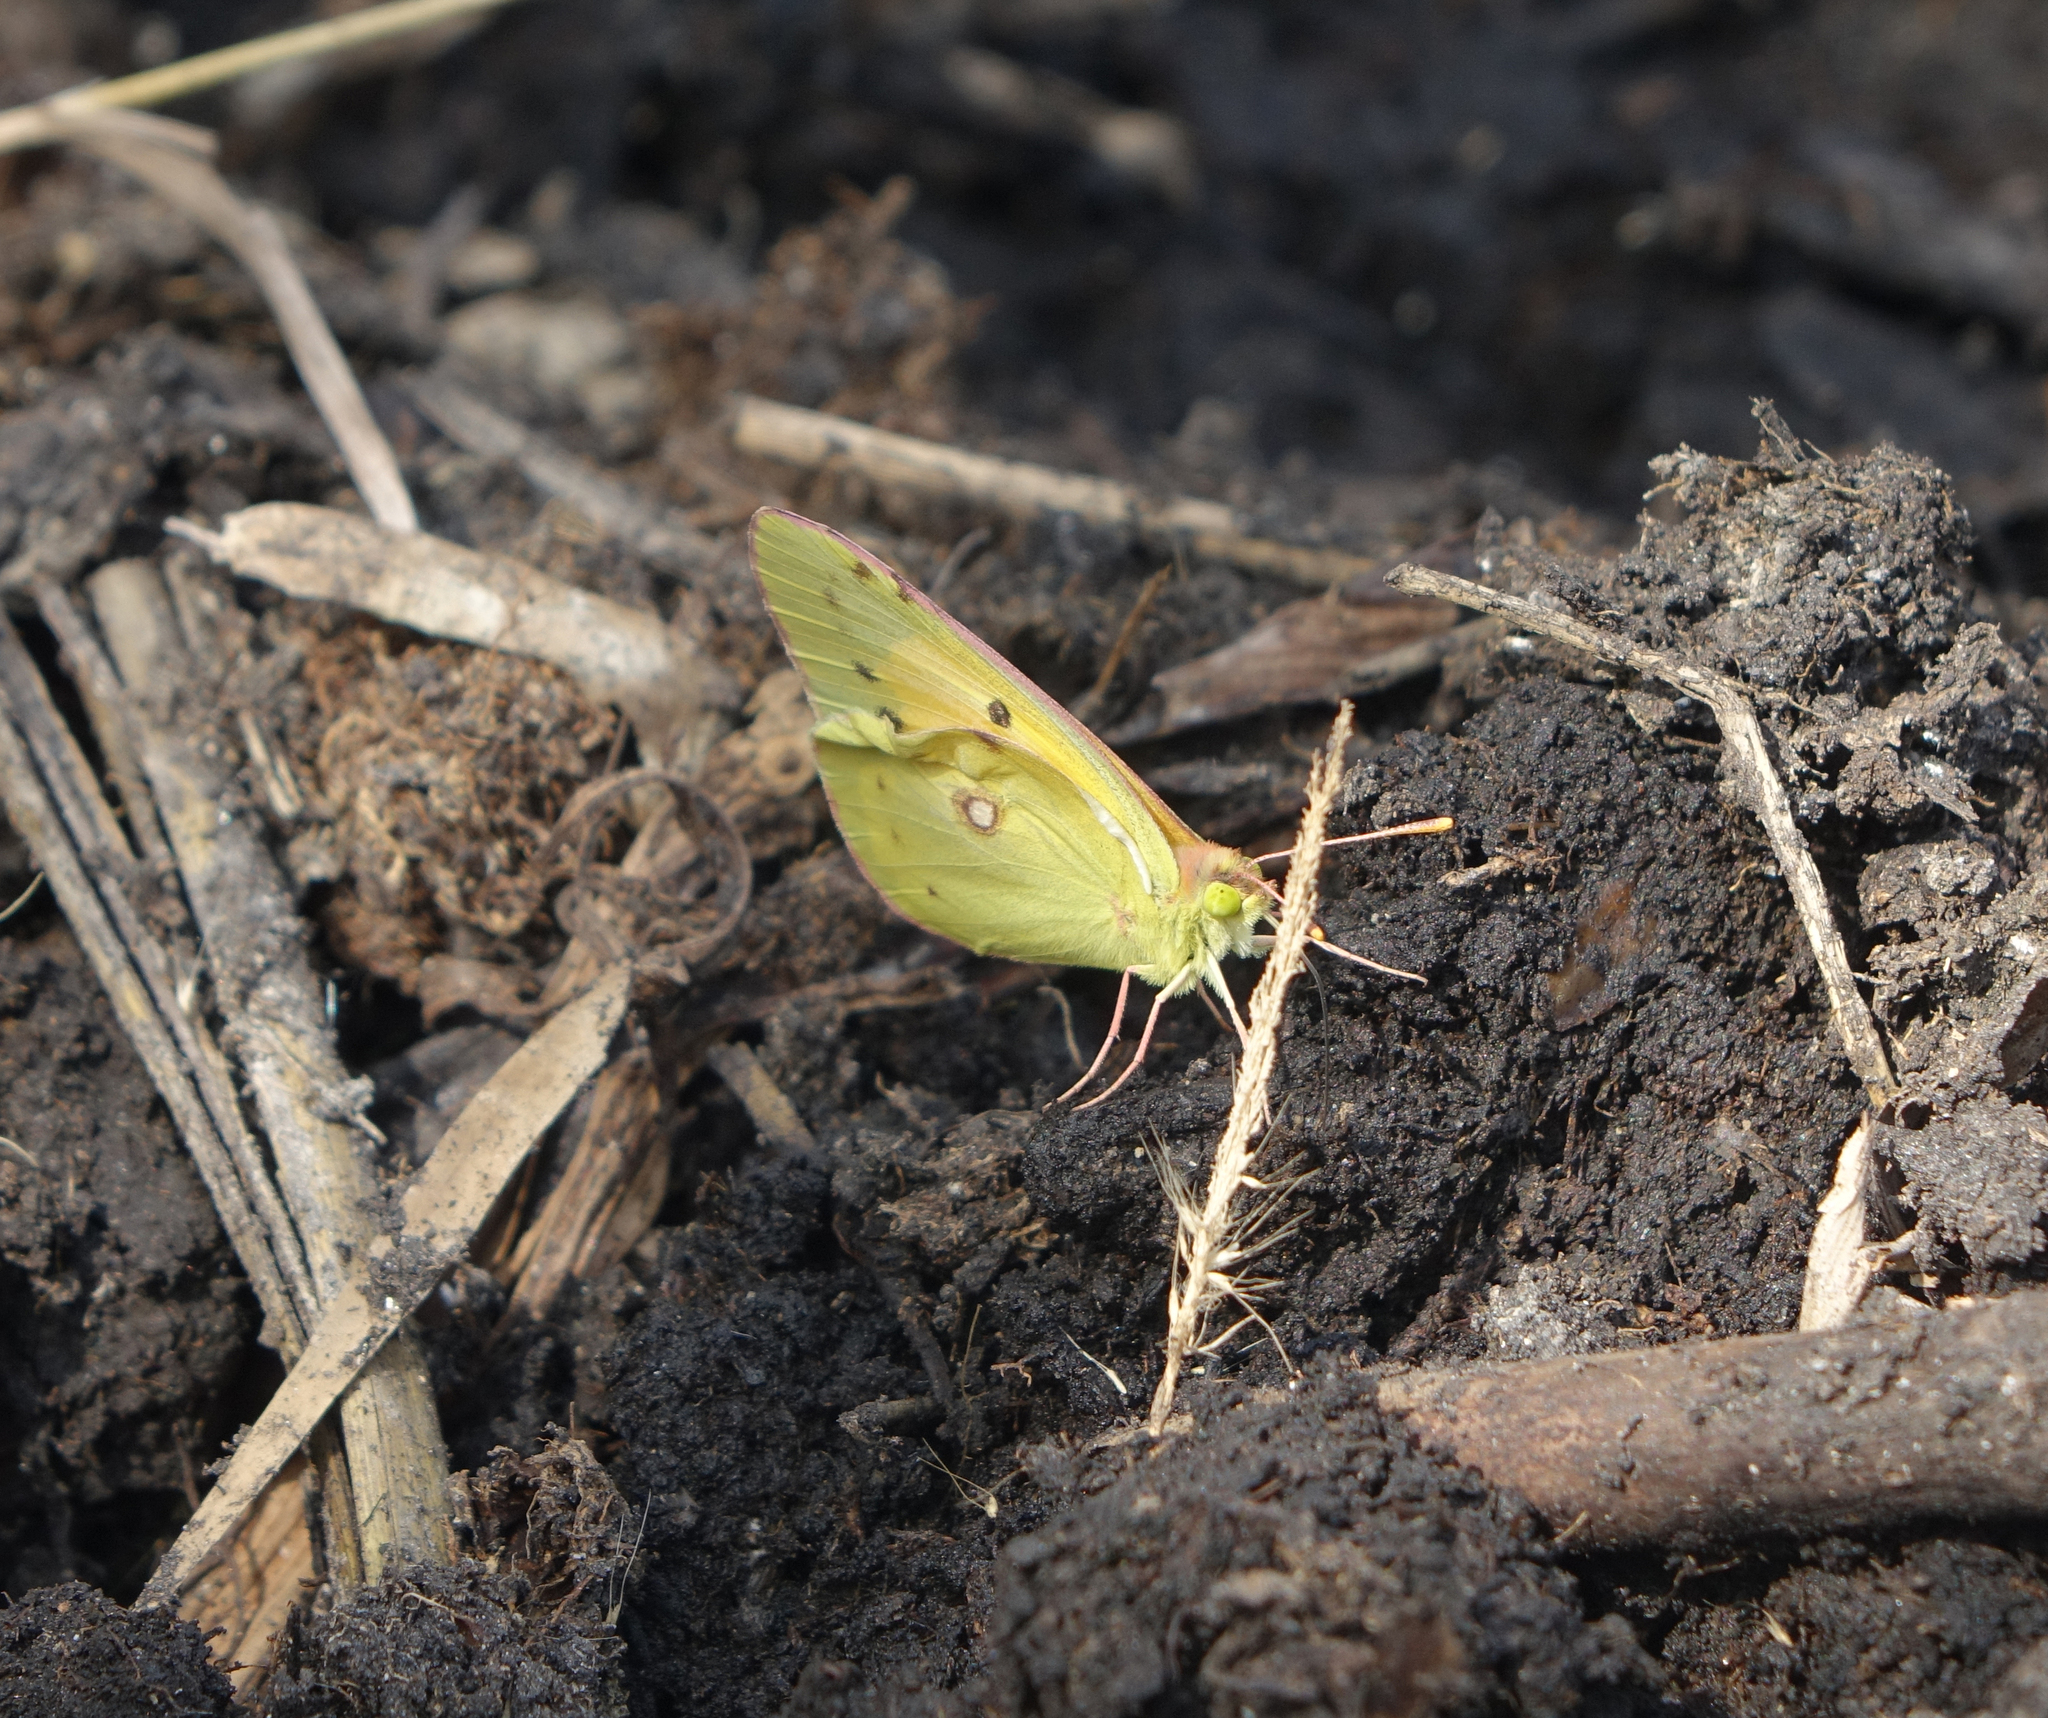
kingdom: Animalia
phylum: Arthropoda
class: Insecta
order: Lepidoptera
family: Pieridae
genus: Colias
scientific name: Colias croceus
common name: Clouded yellow
